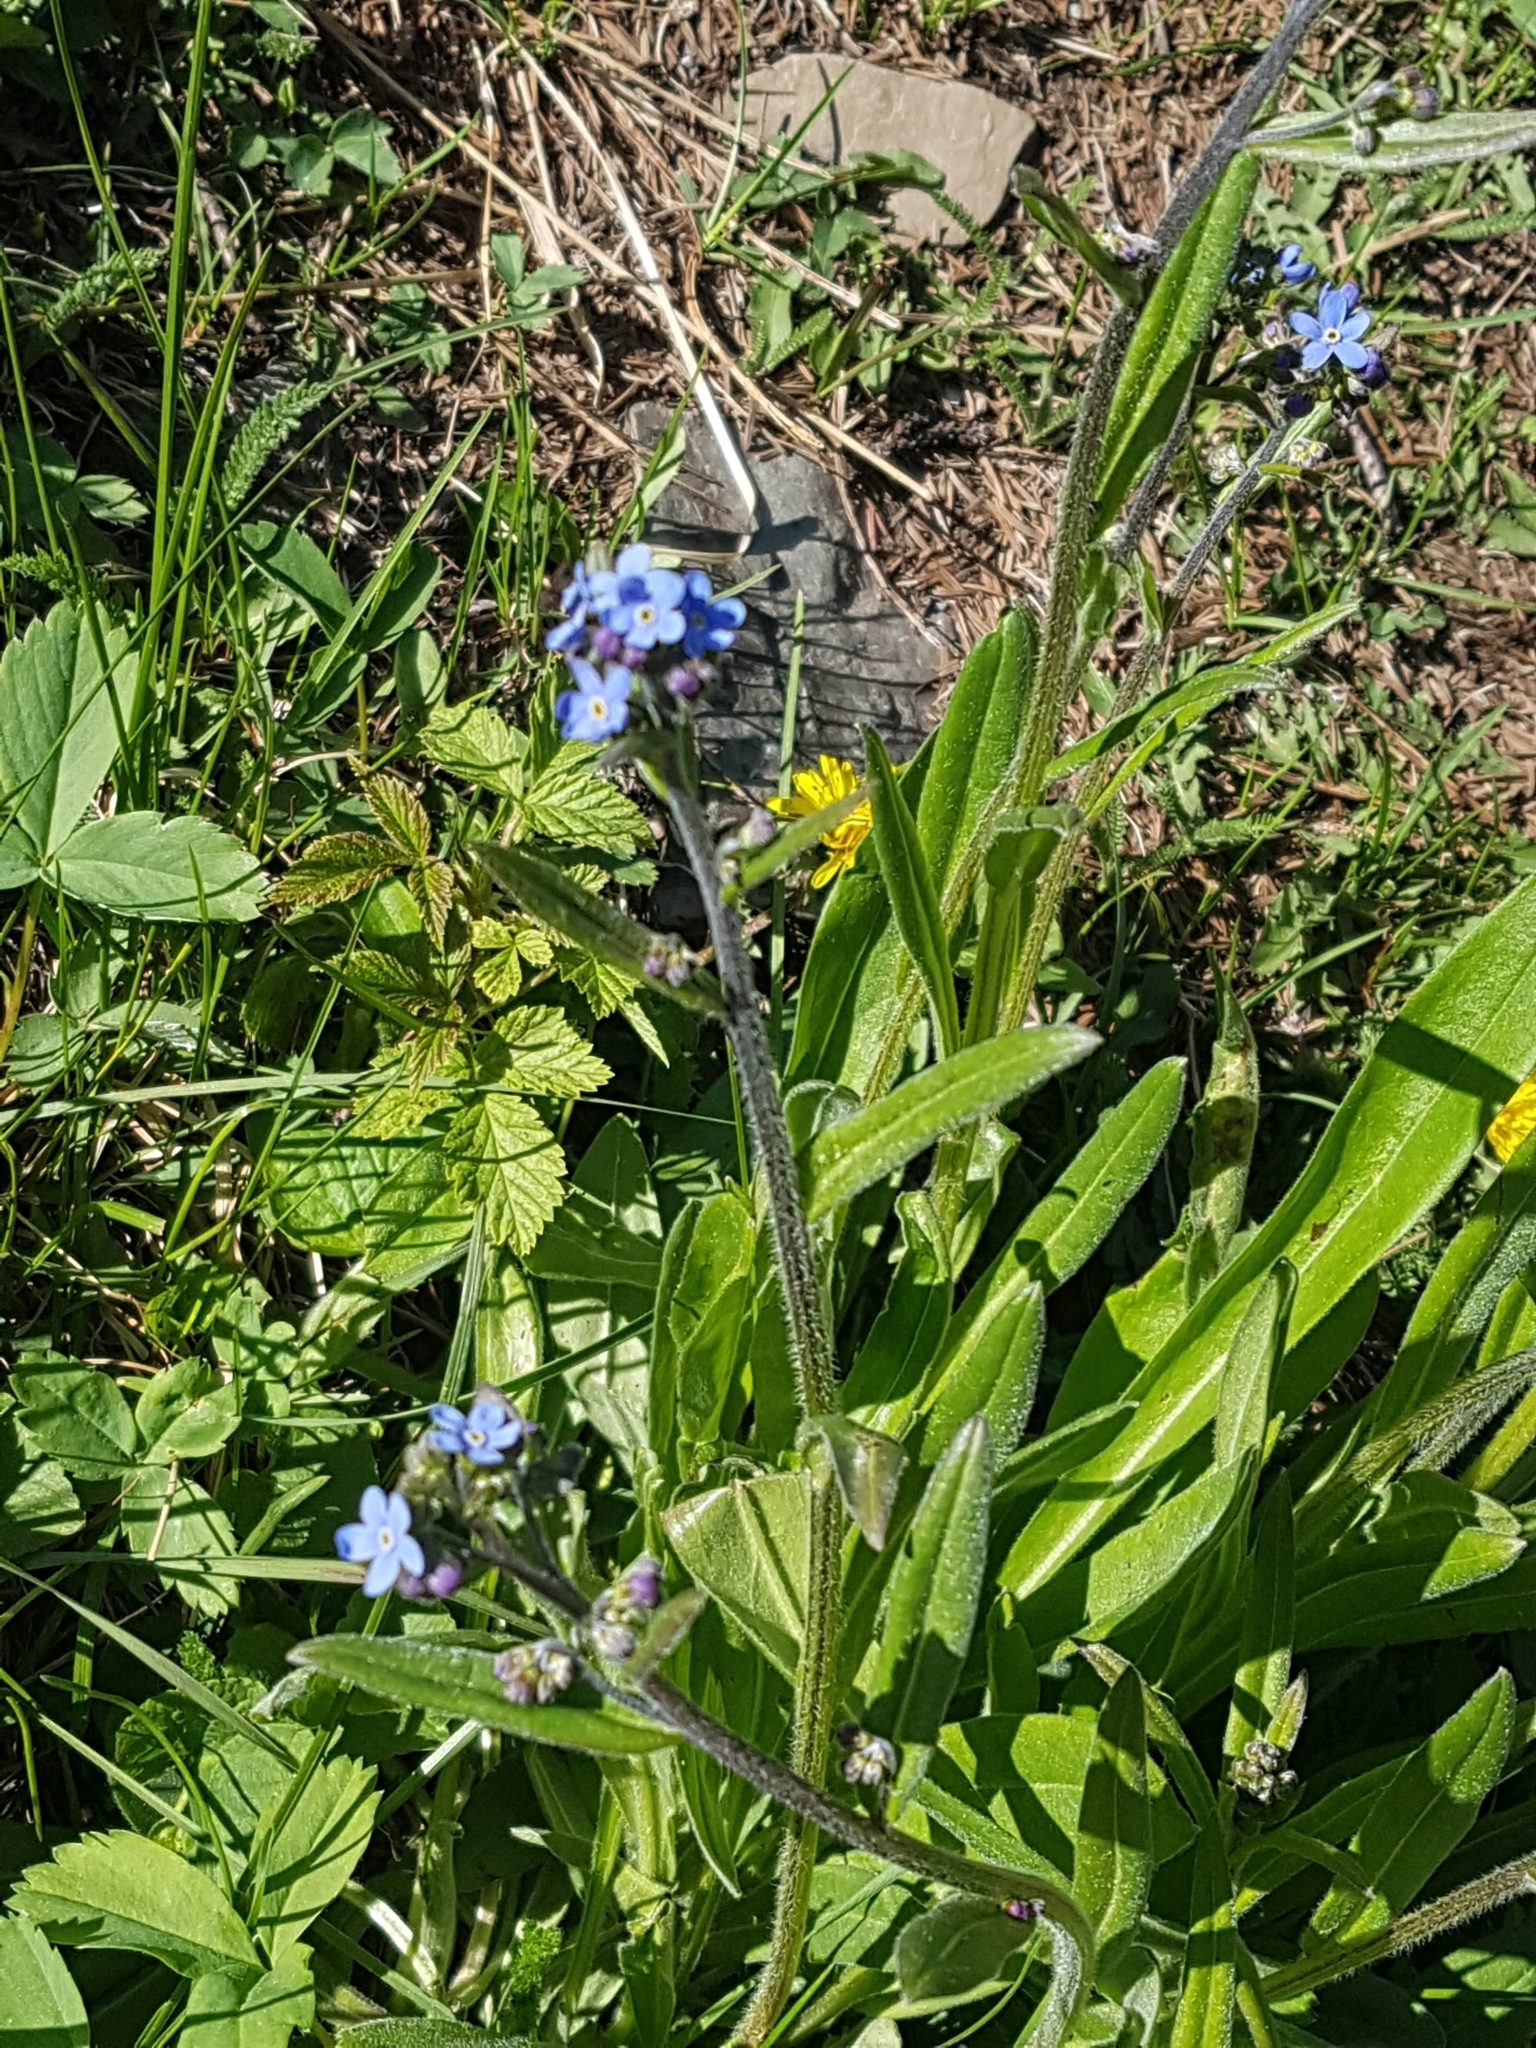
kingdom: Plantae
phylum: Tracheophyta
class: Magnoliopsida
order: Boraginales
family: Boraginaceae
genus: Hackelia
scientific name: Hackelia micrantha
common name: Meadow stickseed
